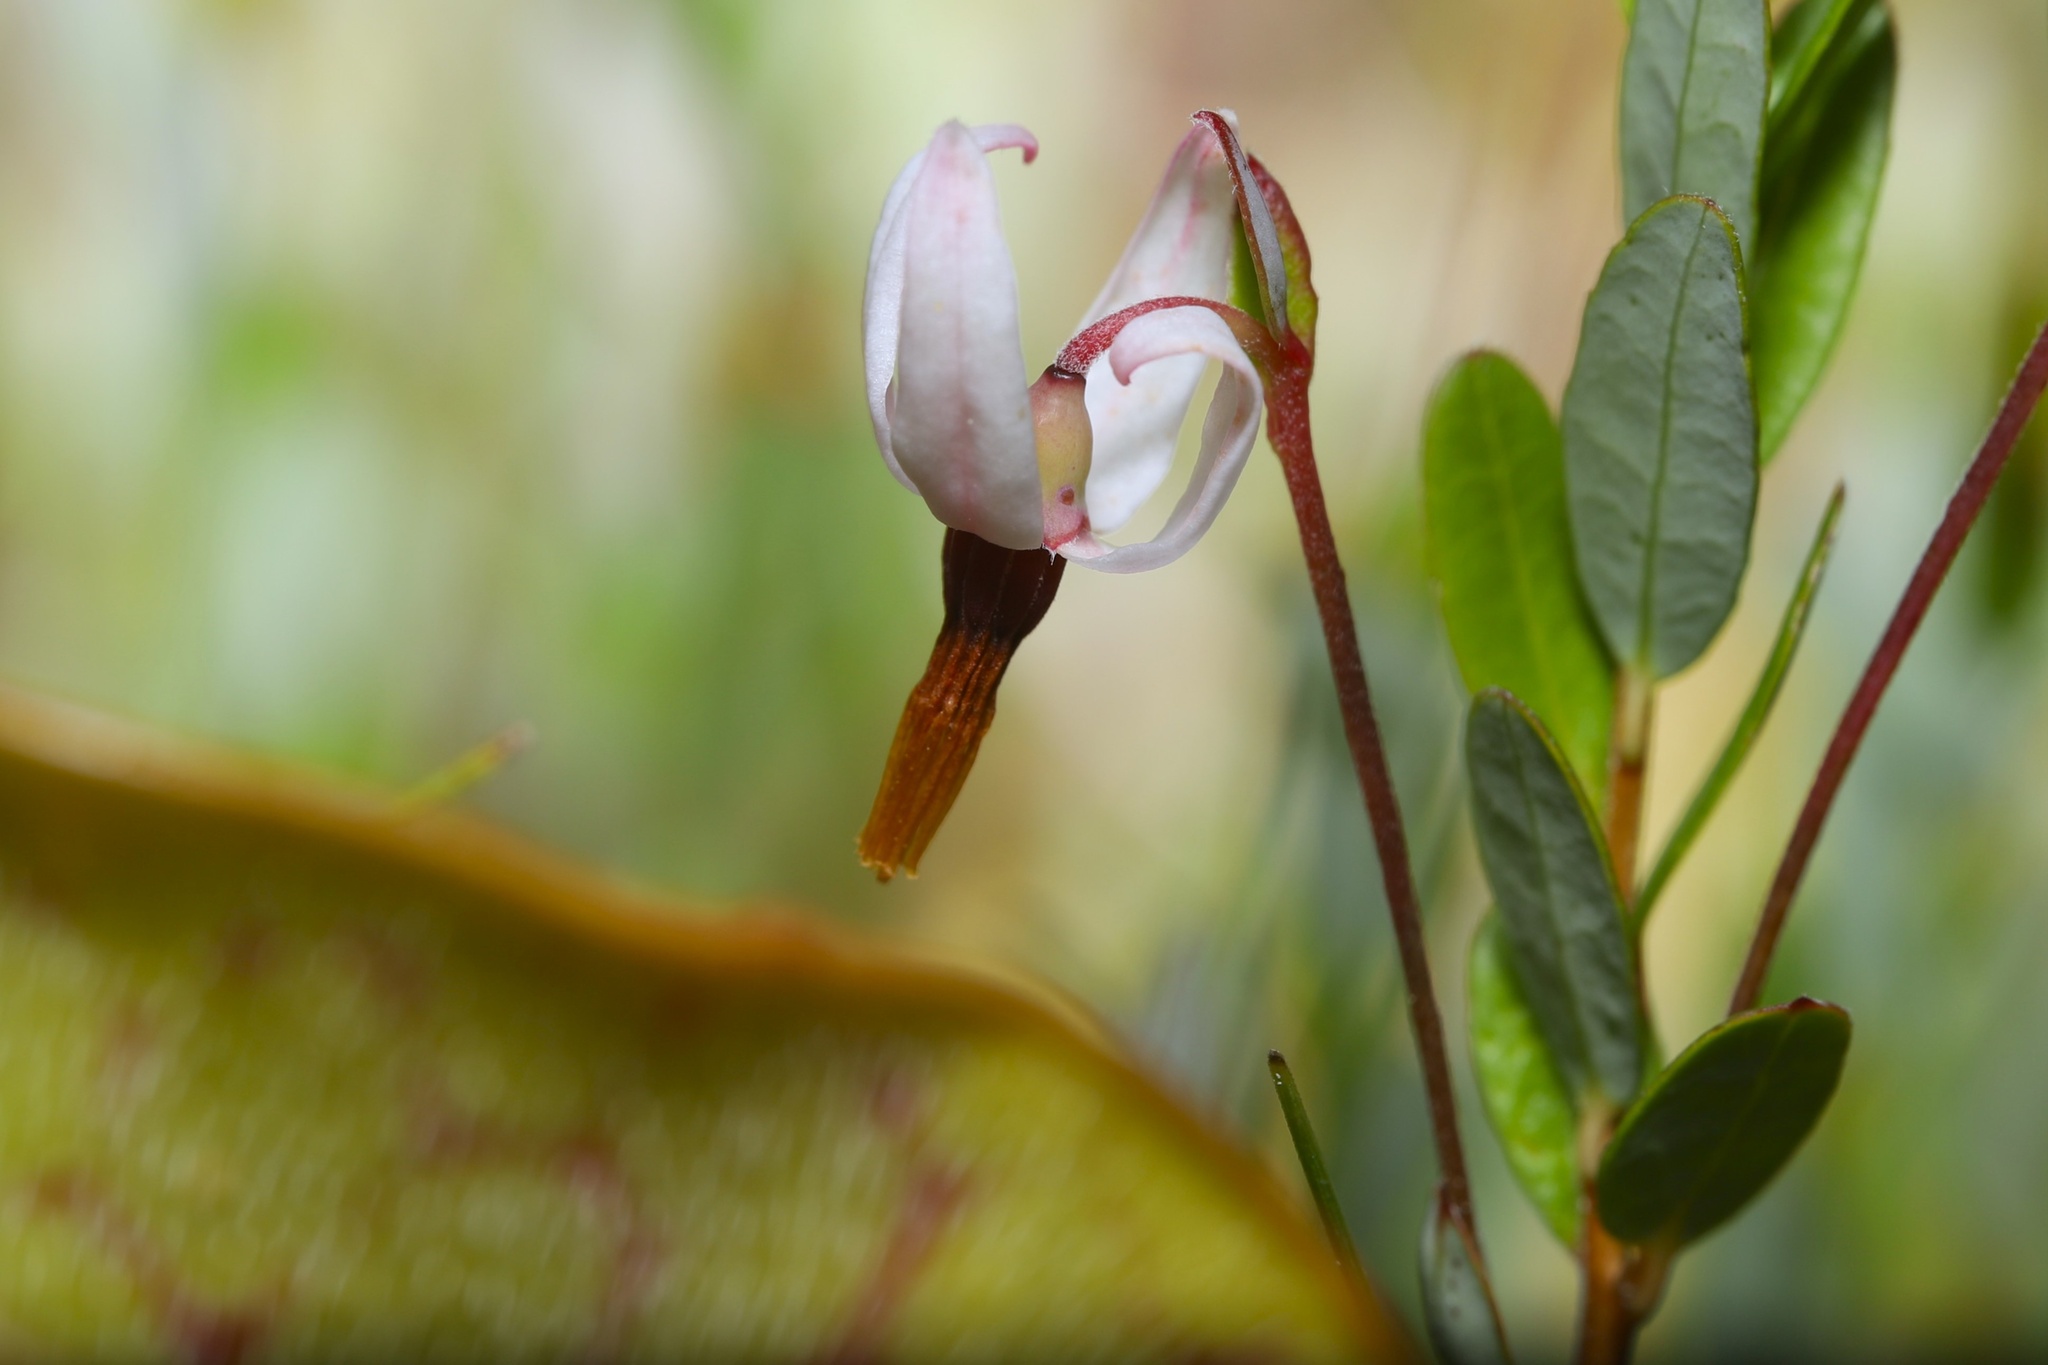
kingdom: Plantae
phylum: Tracheophyta
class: Magnoliopsida
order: Ericales
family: Ericaceae
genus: Vaccinium
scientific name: Vaccinium macrocarpon
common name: American cranberry
